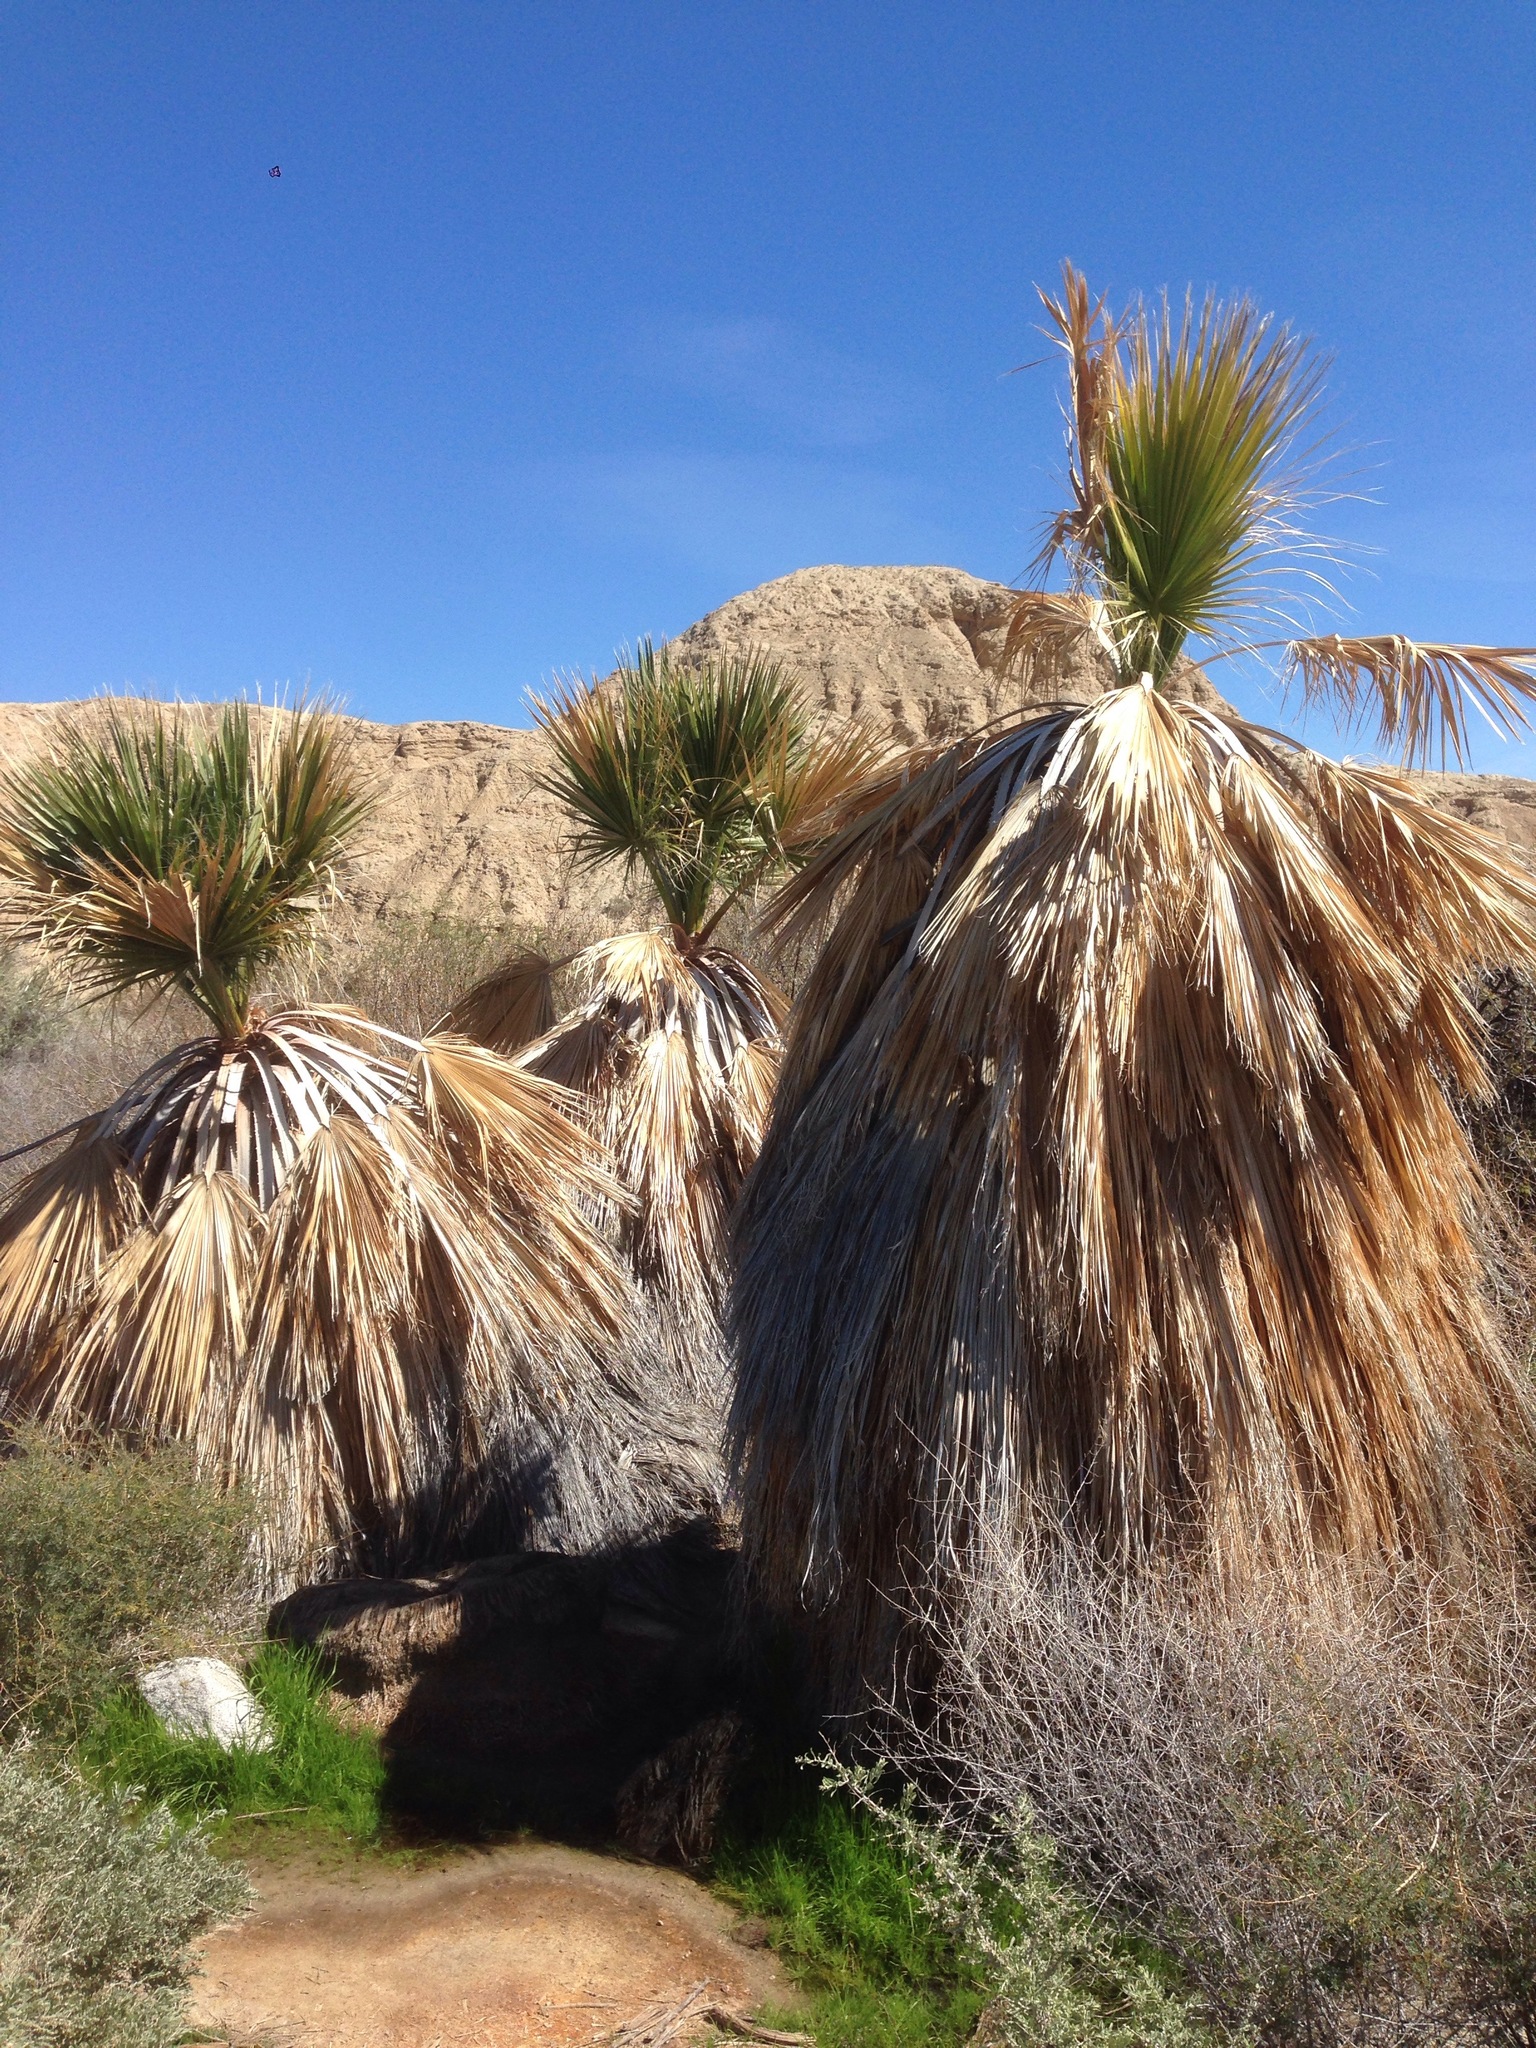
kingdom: Plantae
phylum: Tracheophyta
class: Liliopsida
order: Arecales
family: Arecaceae
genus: Washingtonia
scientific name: Washingtonia filifera
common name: California fan palm
